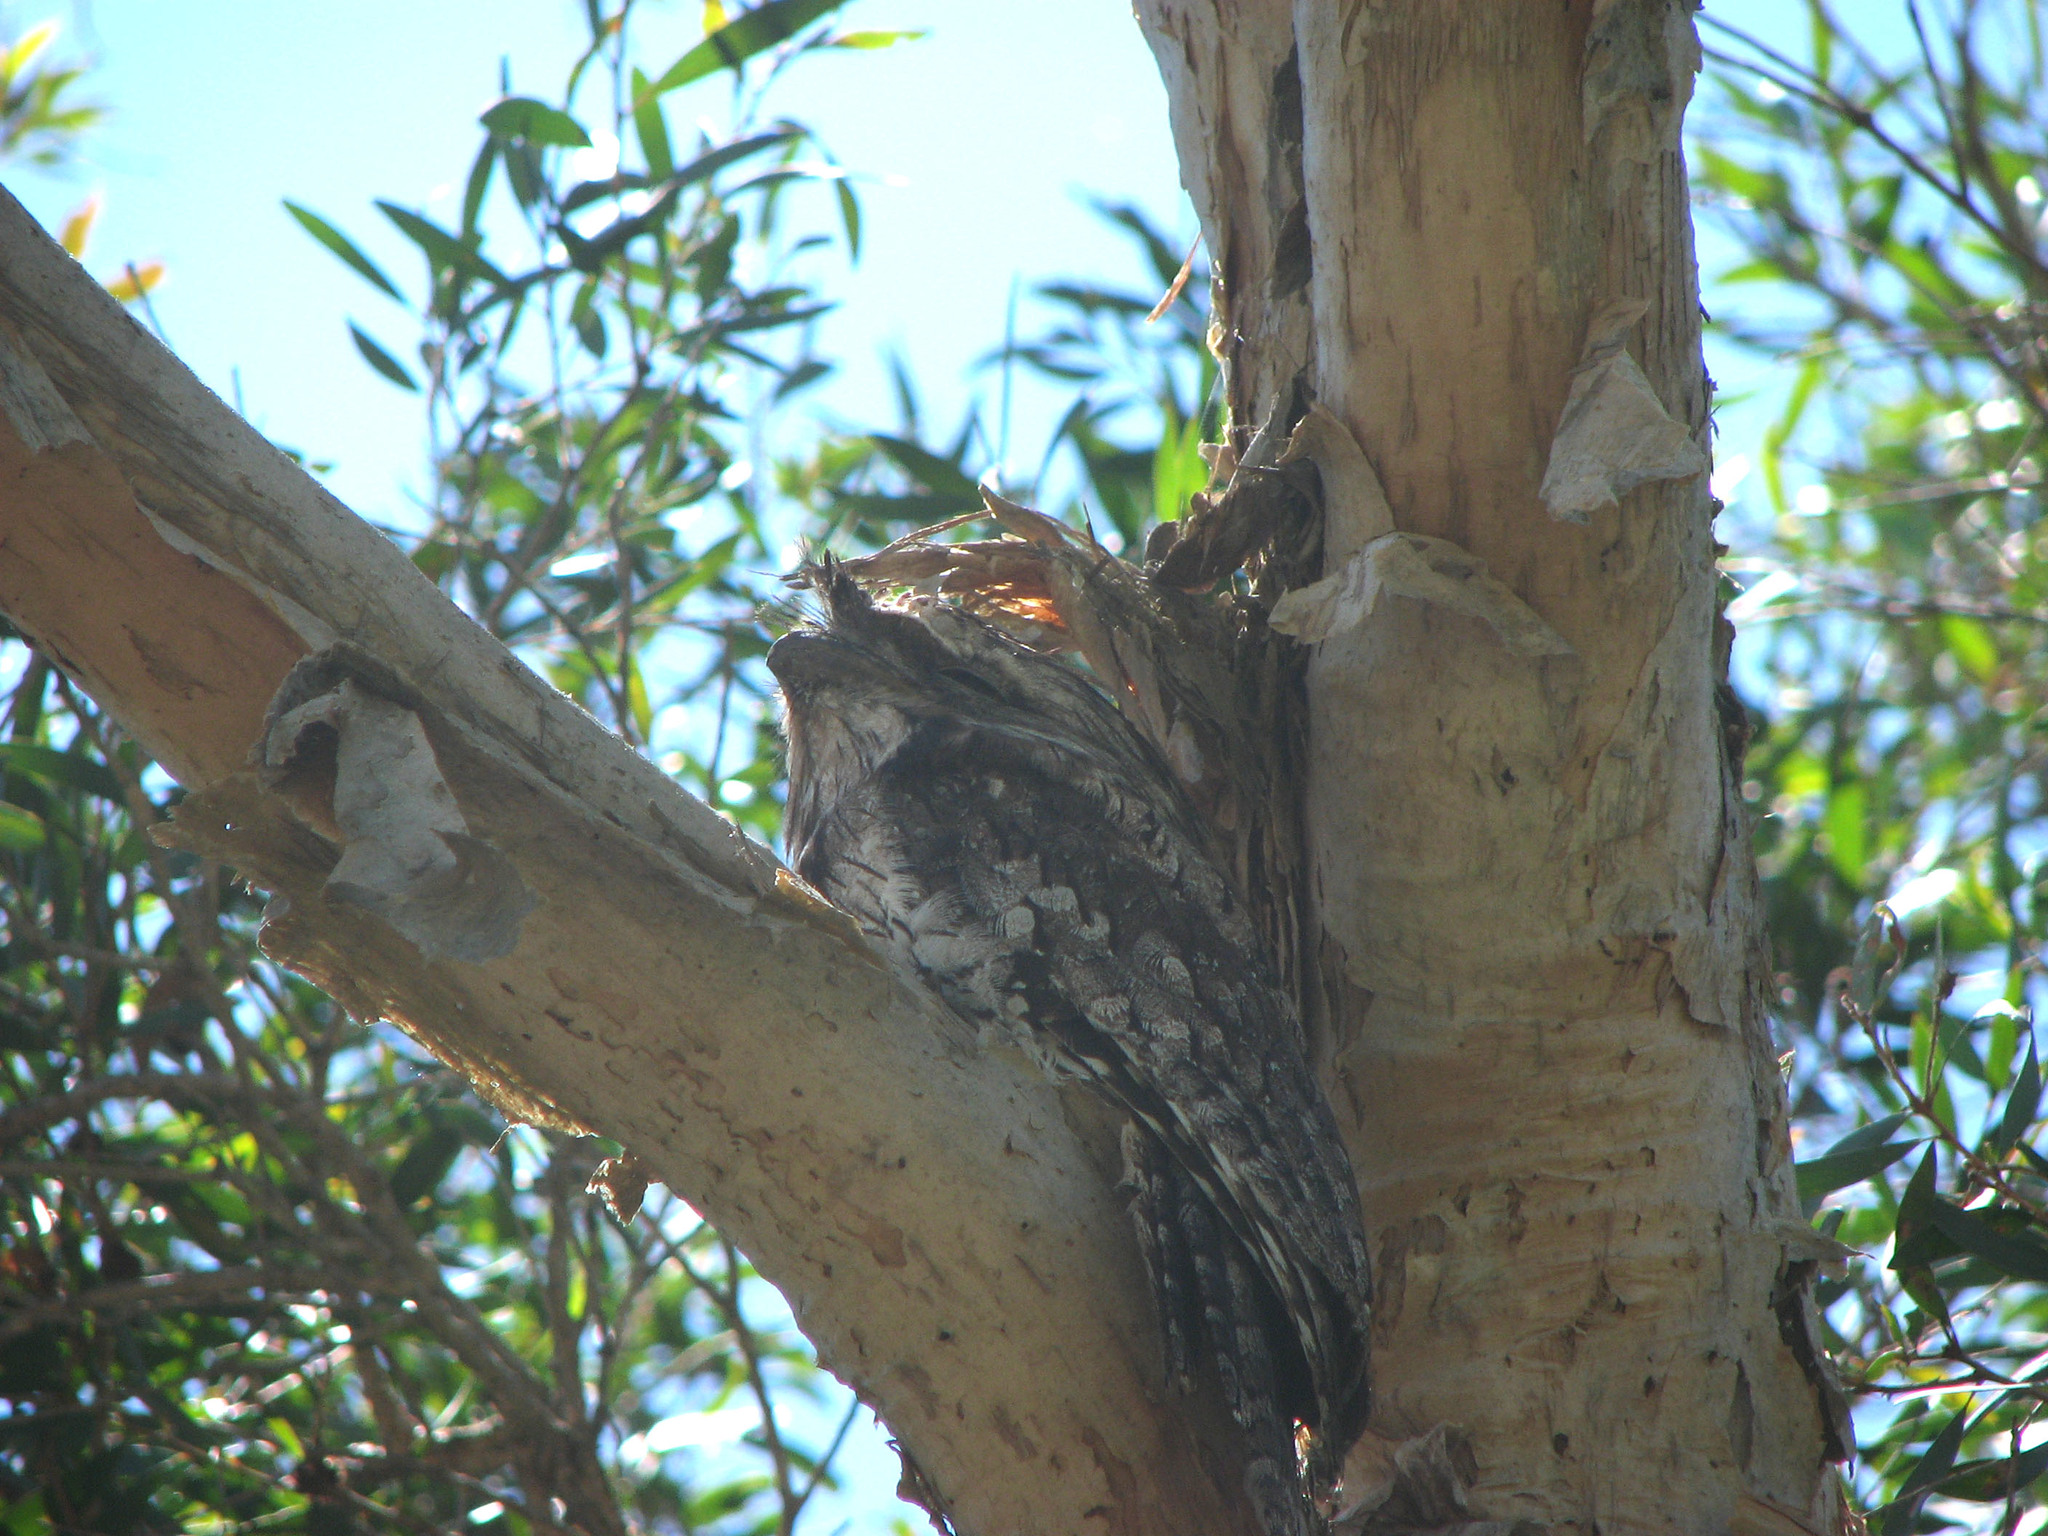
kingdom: Animalia
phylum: Chordata
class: Aves
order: Caprimulgiformes
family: Podargidae
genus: Podargus
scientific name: Podargus strigoides
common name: Tawny frogmouth
